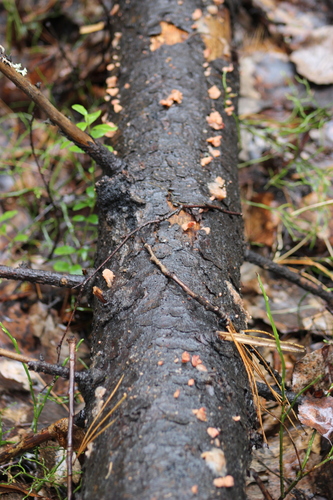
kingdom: Fungi
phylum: Basidiomycota
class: Agaricomycetes
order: Polyporales
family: Polyporaceae
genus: Trametes
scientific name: Trametes
